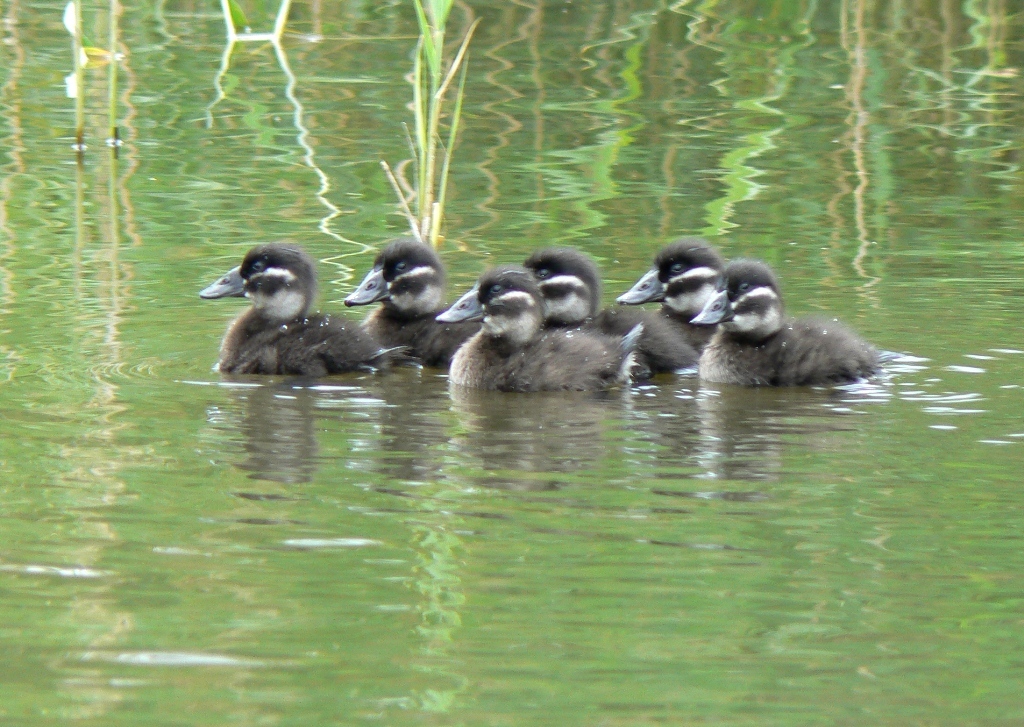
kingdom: Animalia
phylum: Chordata
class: Aves
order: Anseriformes
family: Anatidae
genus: Oxyura
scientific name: Oxyura leucocephala
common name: White-headed duck
